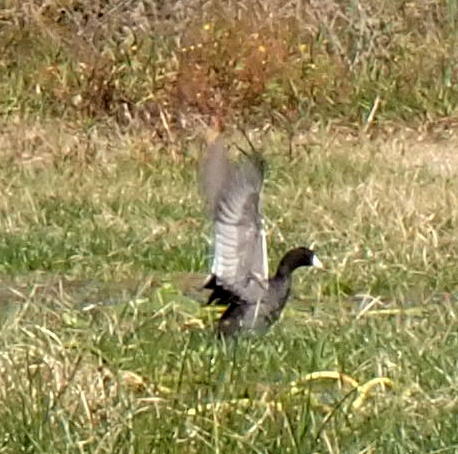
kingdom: Animalia
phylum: Chordata
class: Aves
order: Gruiformes
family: Rallidae
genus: Fulica
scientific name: Fulica americana
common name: American coot
